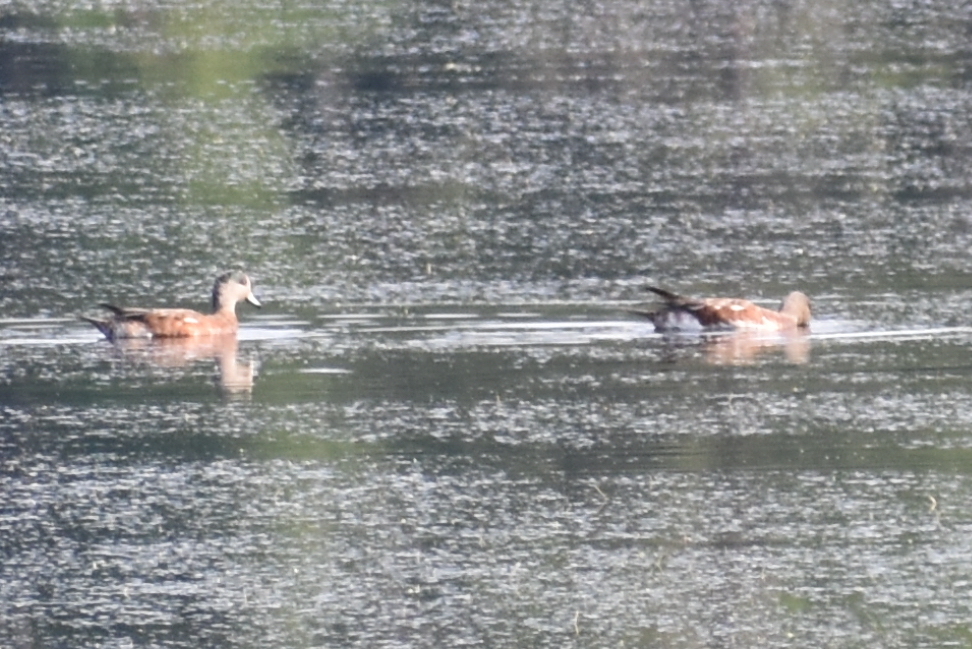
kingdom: Animalia
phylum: Chordata
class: Aves
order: Anseriformes
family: Anatidae
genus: Mareca
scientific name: Mareca americana
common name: American wigeon
